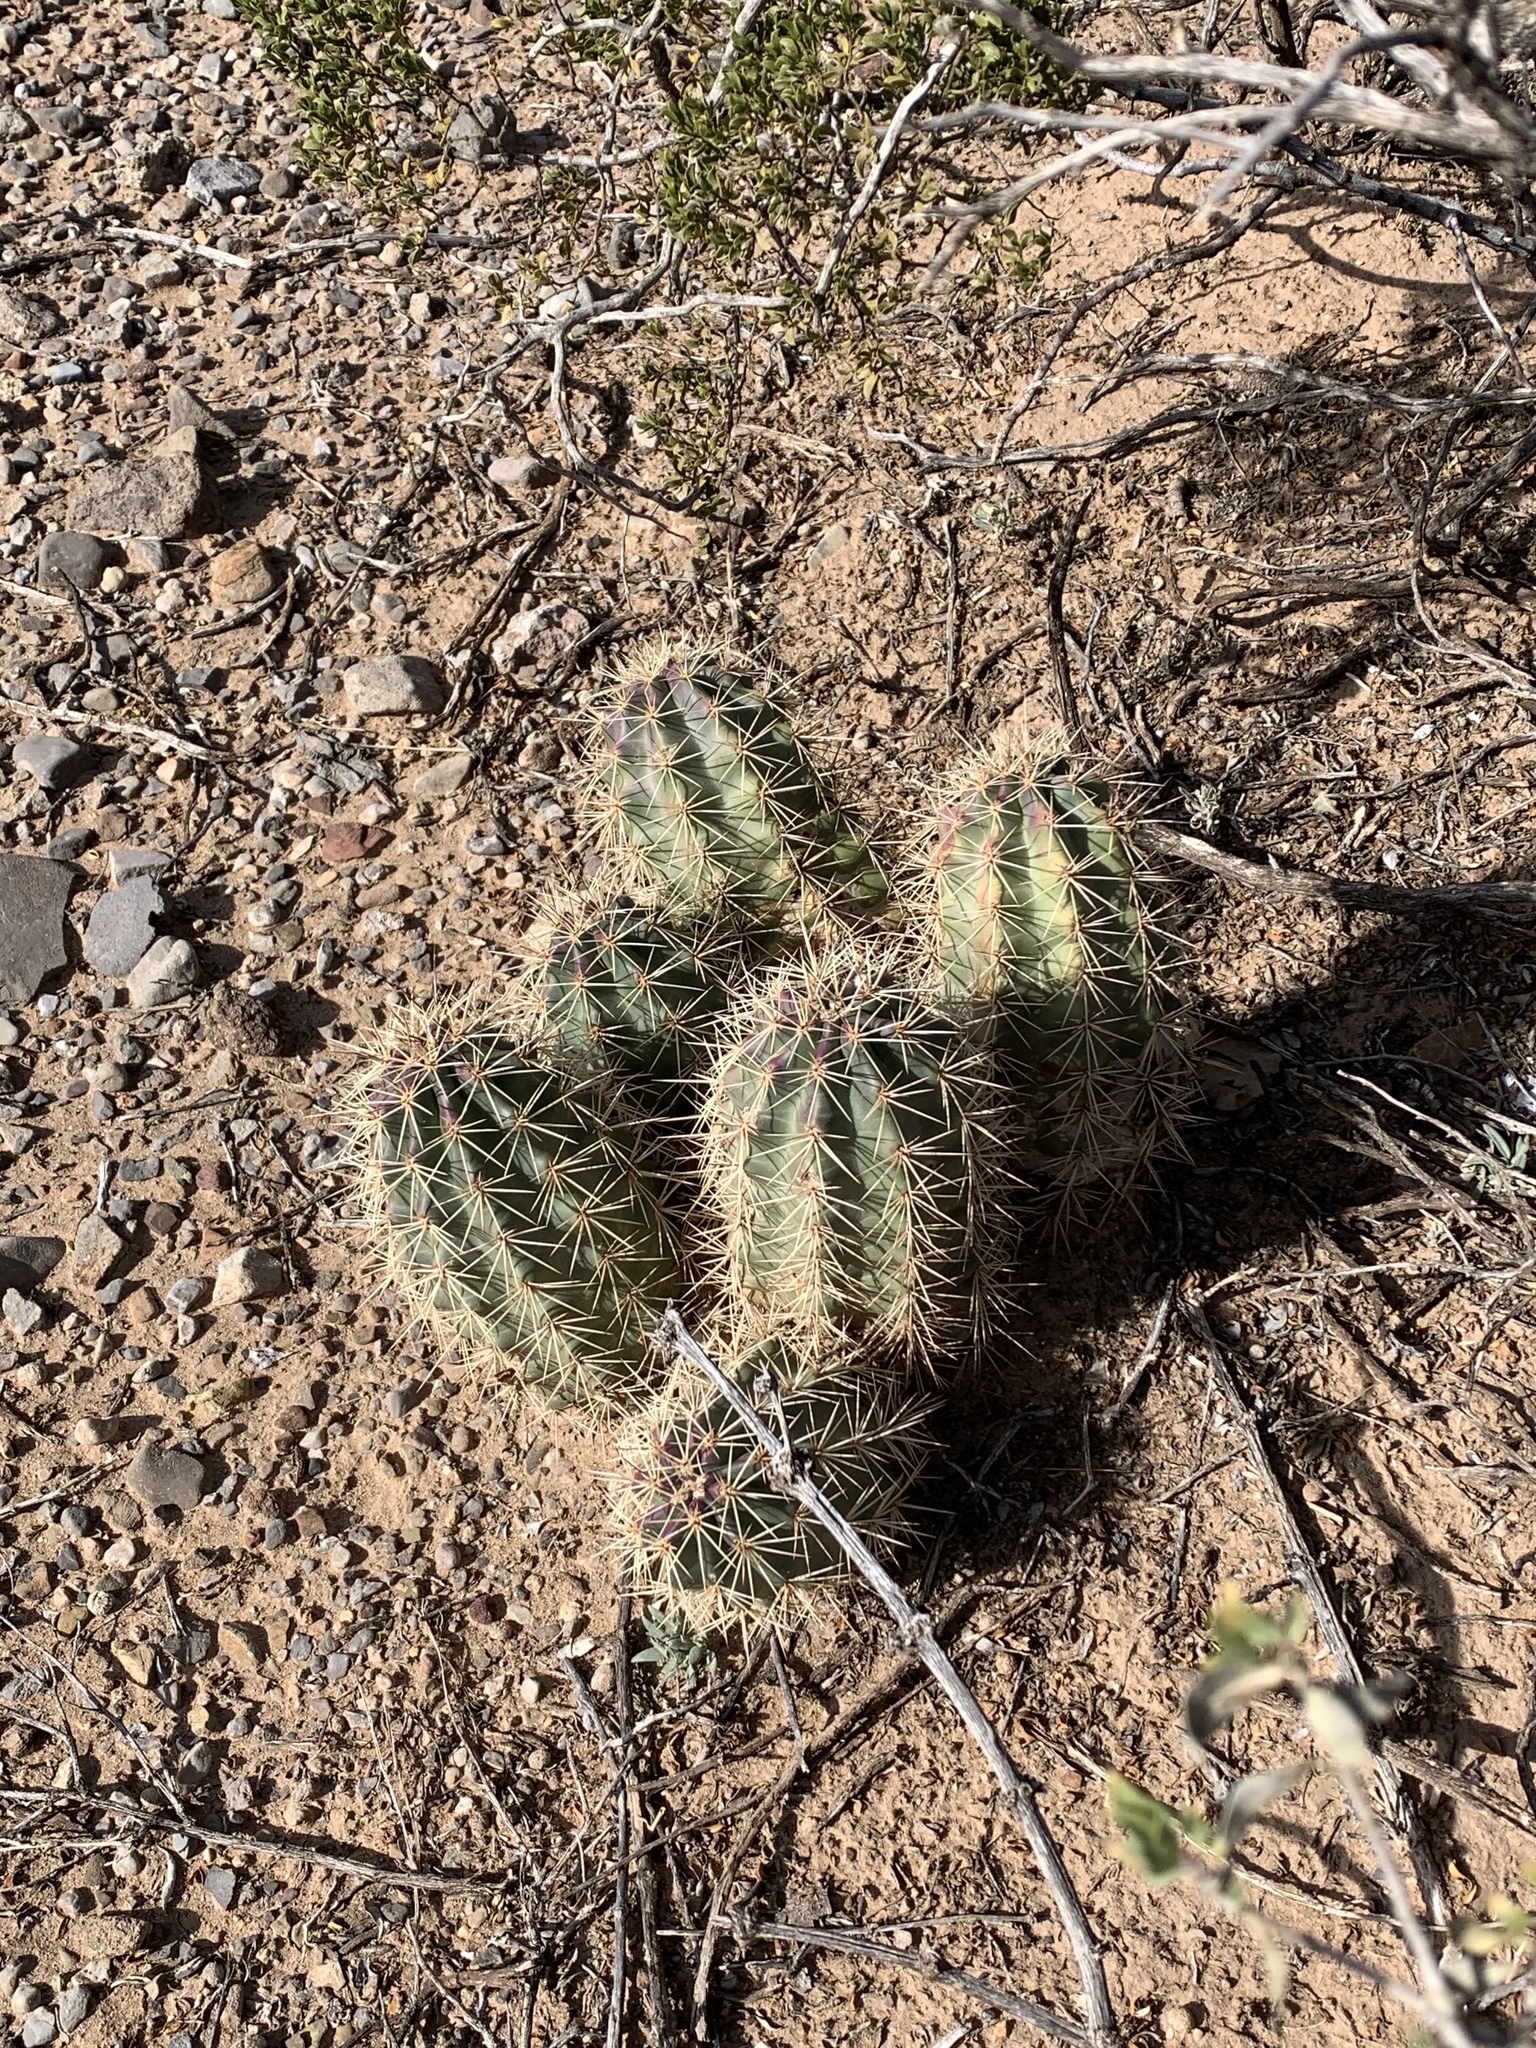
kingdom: Plantae
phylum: Tracheophyta
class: Magnoliopsida
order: Caryophyllales
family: Cactaceae
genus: Echinocereus
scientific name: Echinocereus coccineus
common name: Scarlet hedgehog cactus
